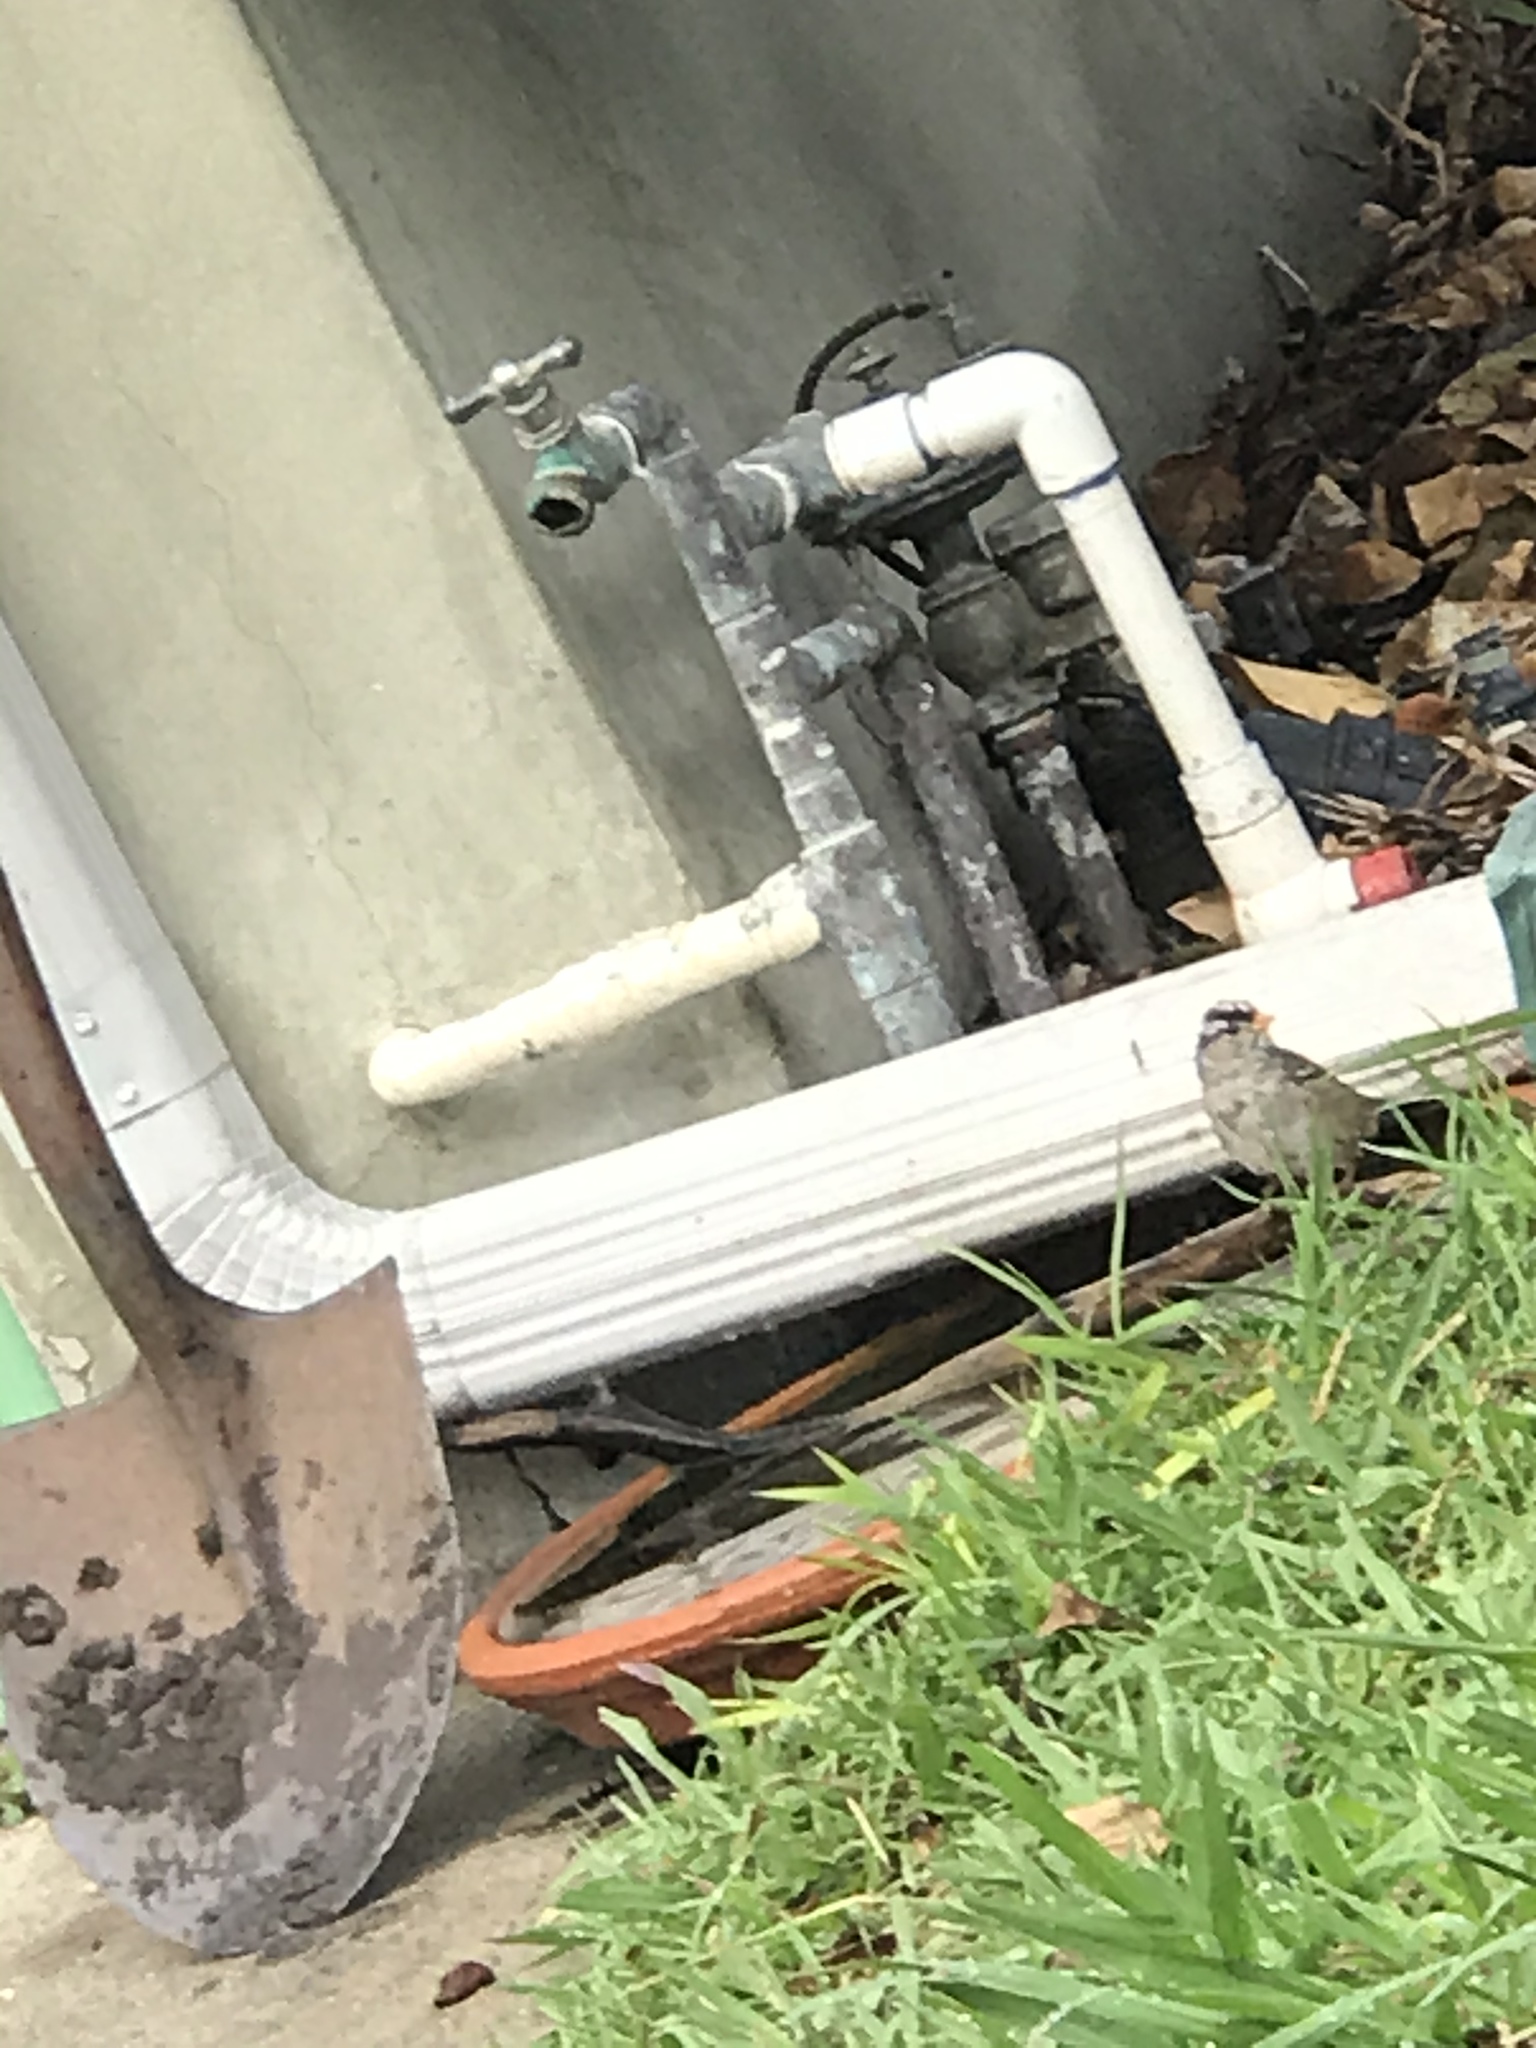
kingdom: Animalia
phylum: Chordata
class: Aves
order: Passeriformes
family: Passerellidae
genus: Zonotrichia
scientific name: Zonotrichia leucophrys
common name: White-crowned sparrow
